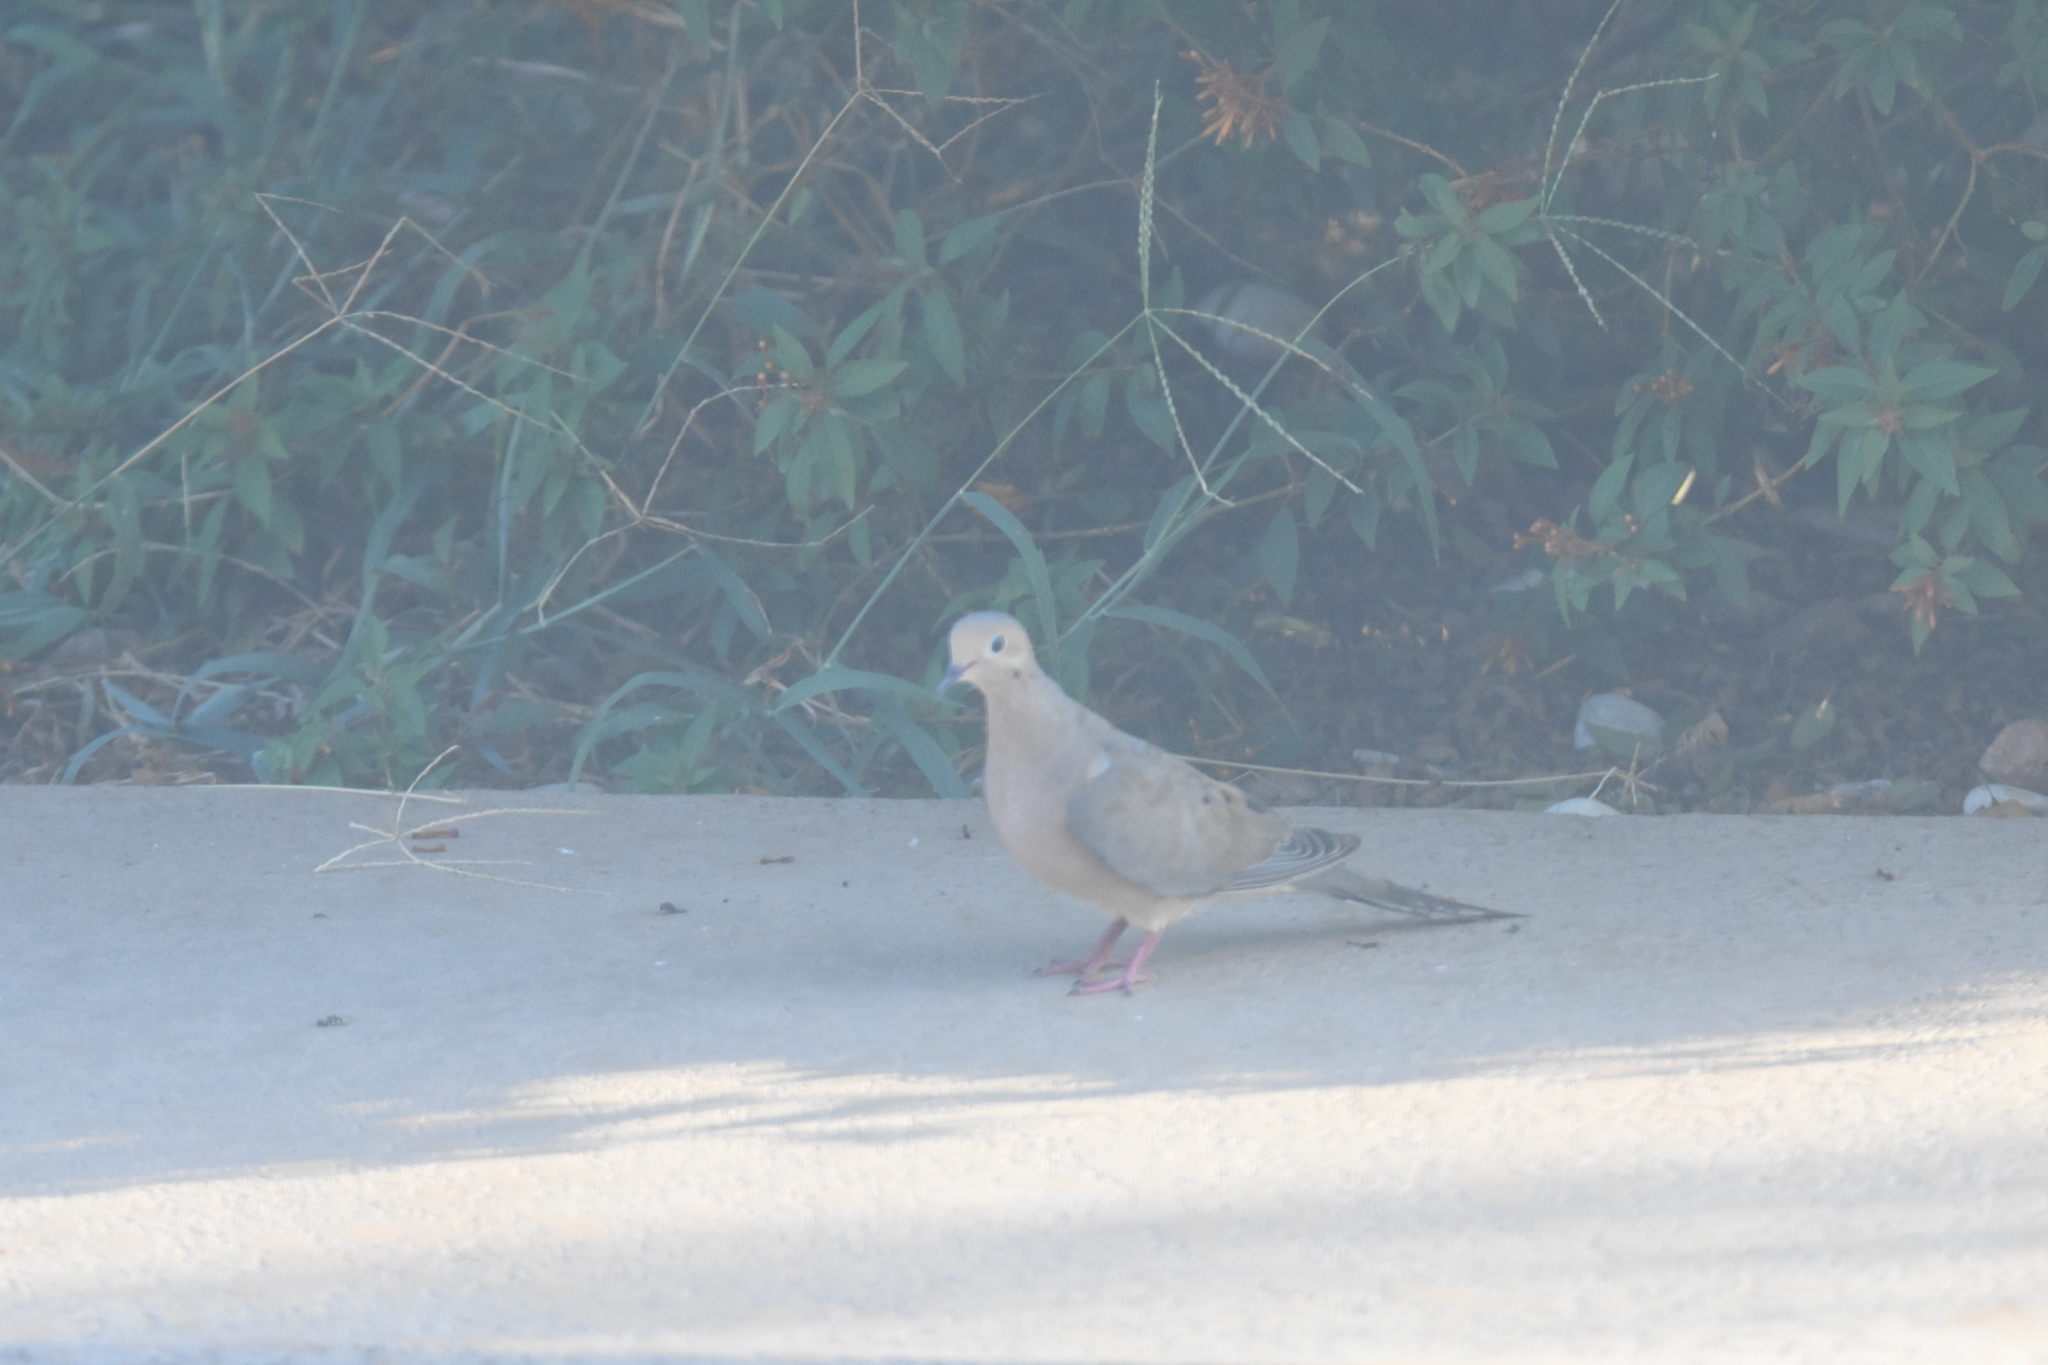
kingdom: Animalia
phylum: Chordata
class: Aves
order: Columbiformes
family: Columbidae
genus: Zenaida
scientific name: Zenaida macroura
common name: Mourning dove
